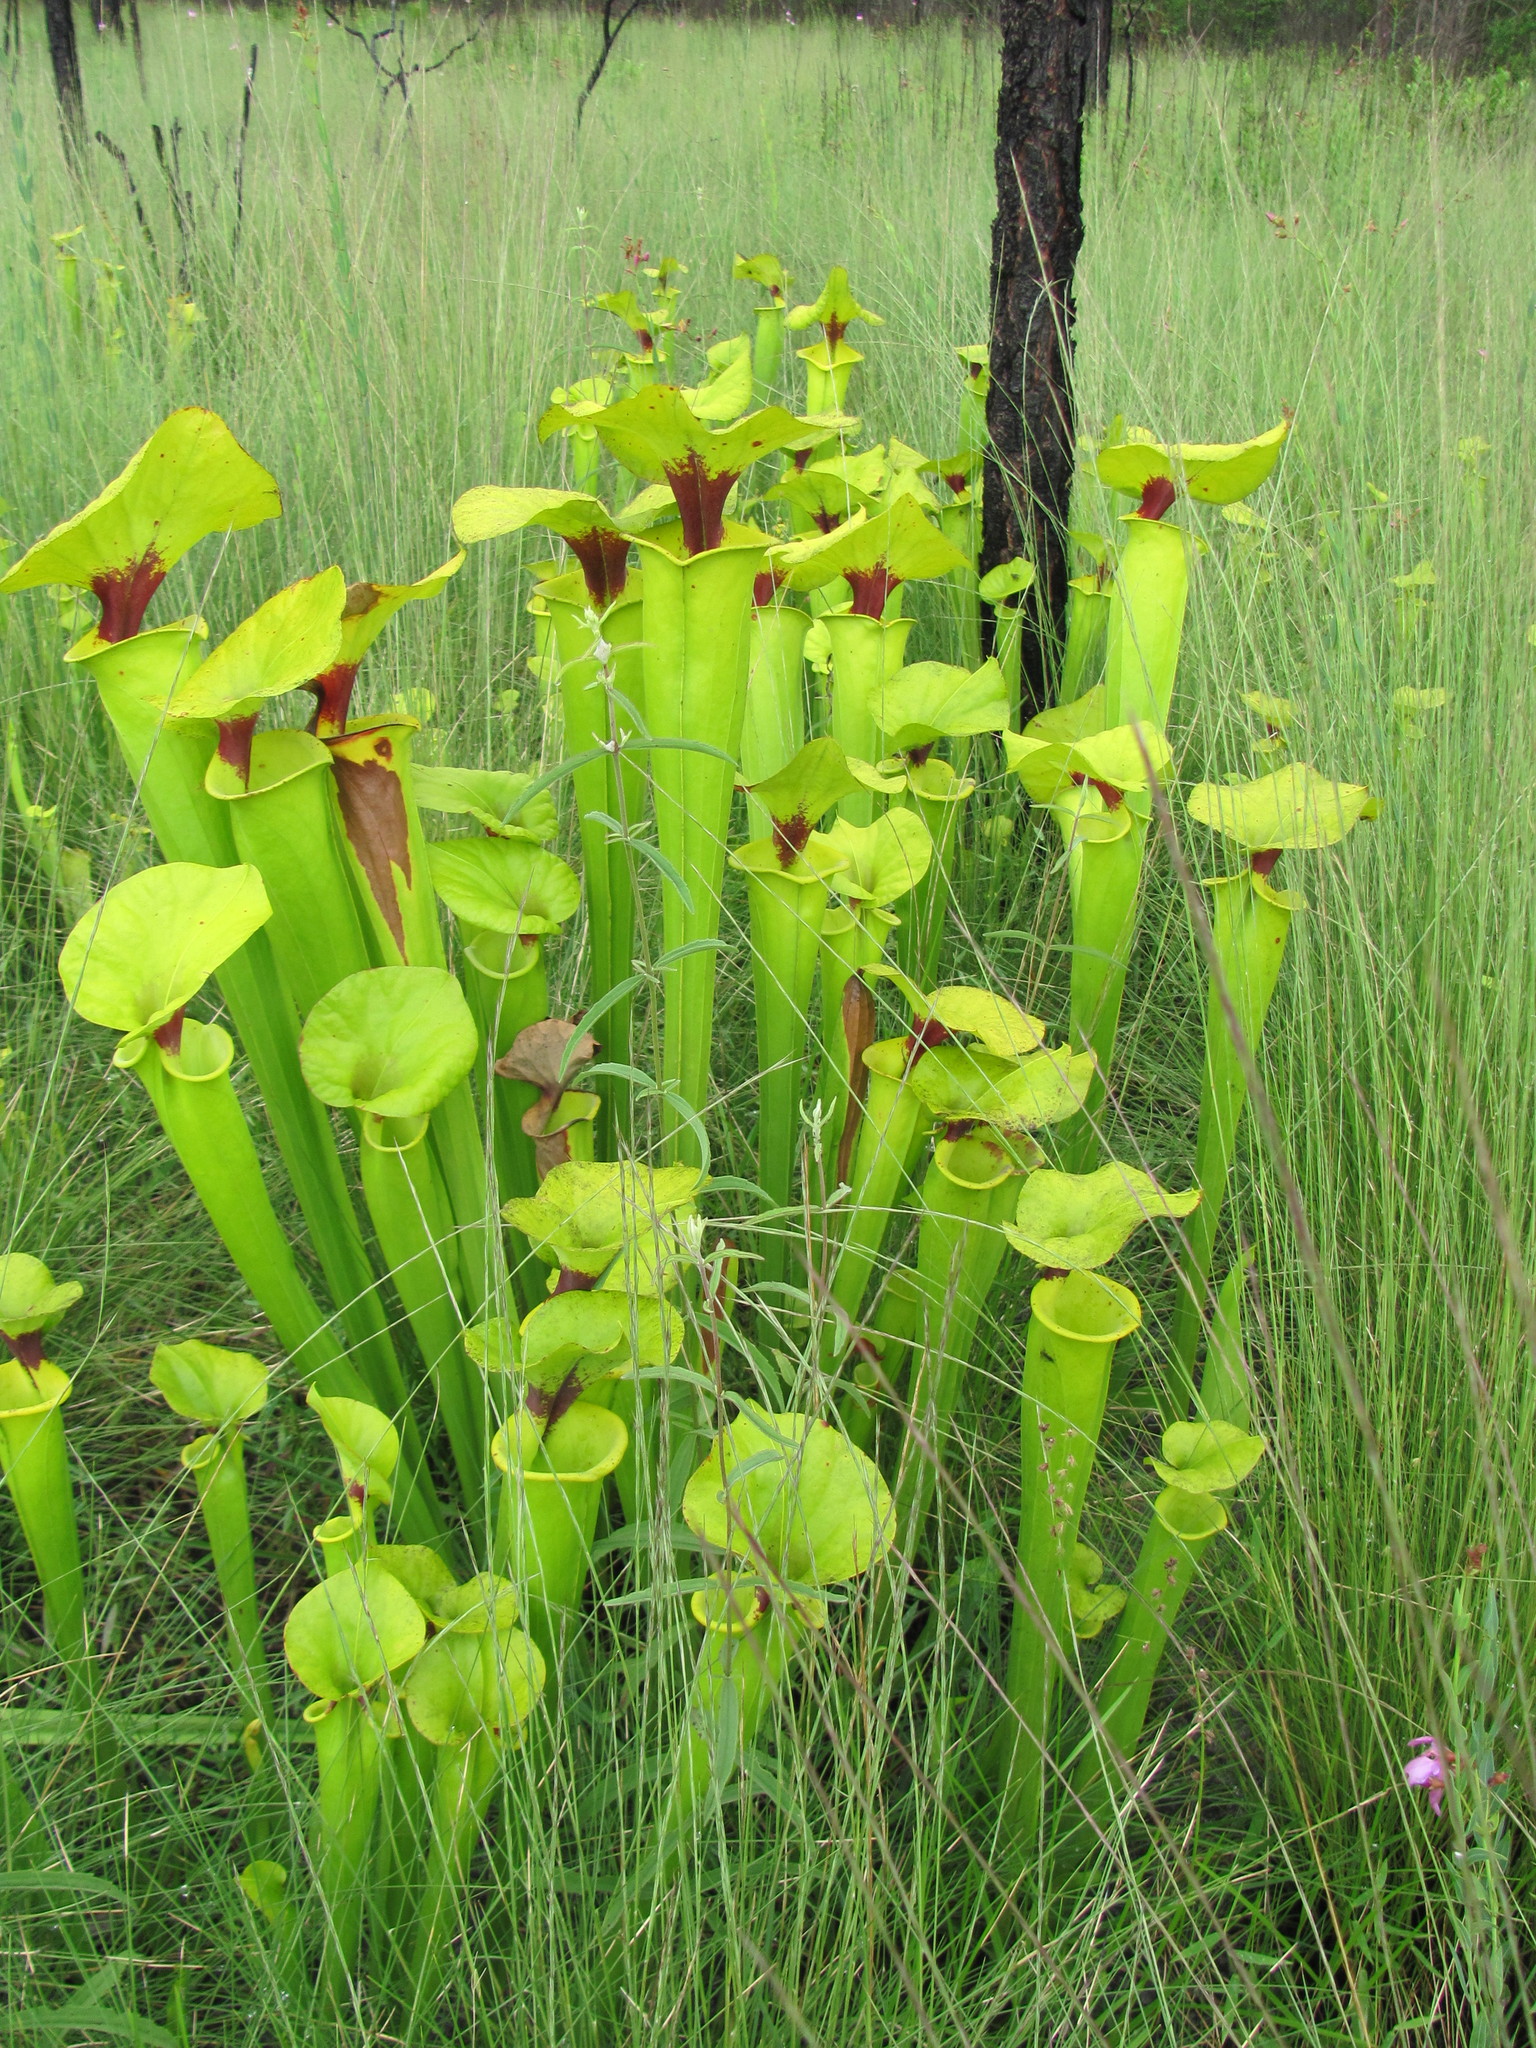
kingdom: Plantae
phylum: Tracheophyta
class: Magnoliopsida
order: Ericales
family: Sarraceniaceae
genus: Sarracenia
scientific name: Sarracenia flava
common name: Trumpets
